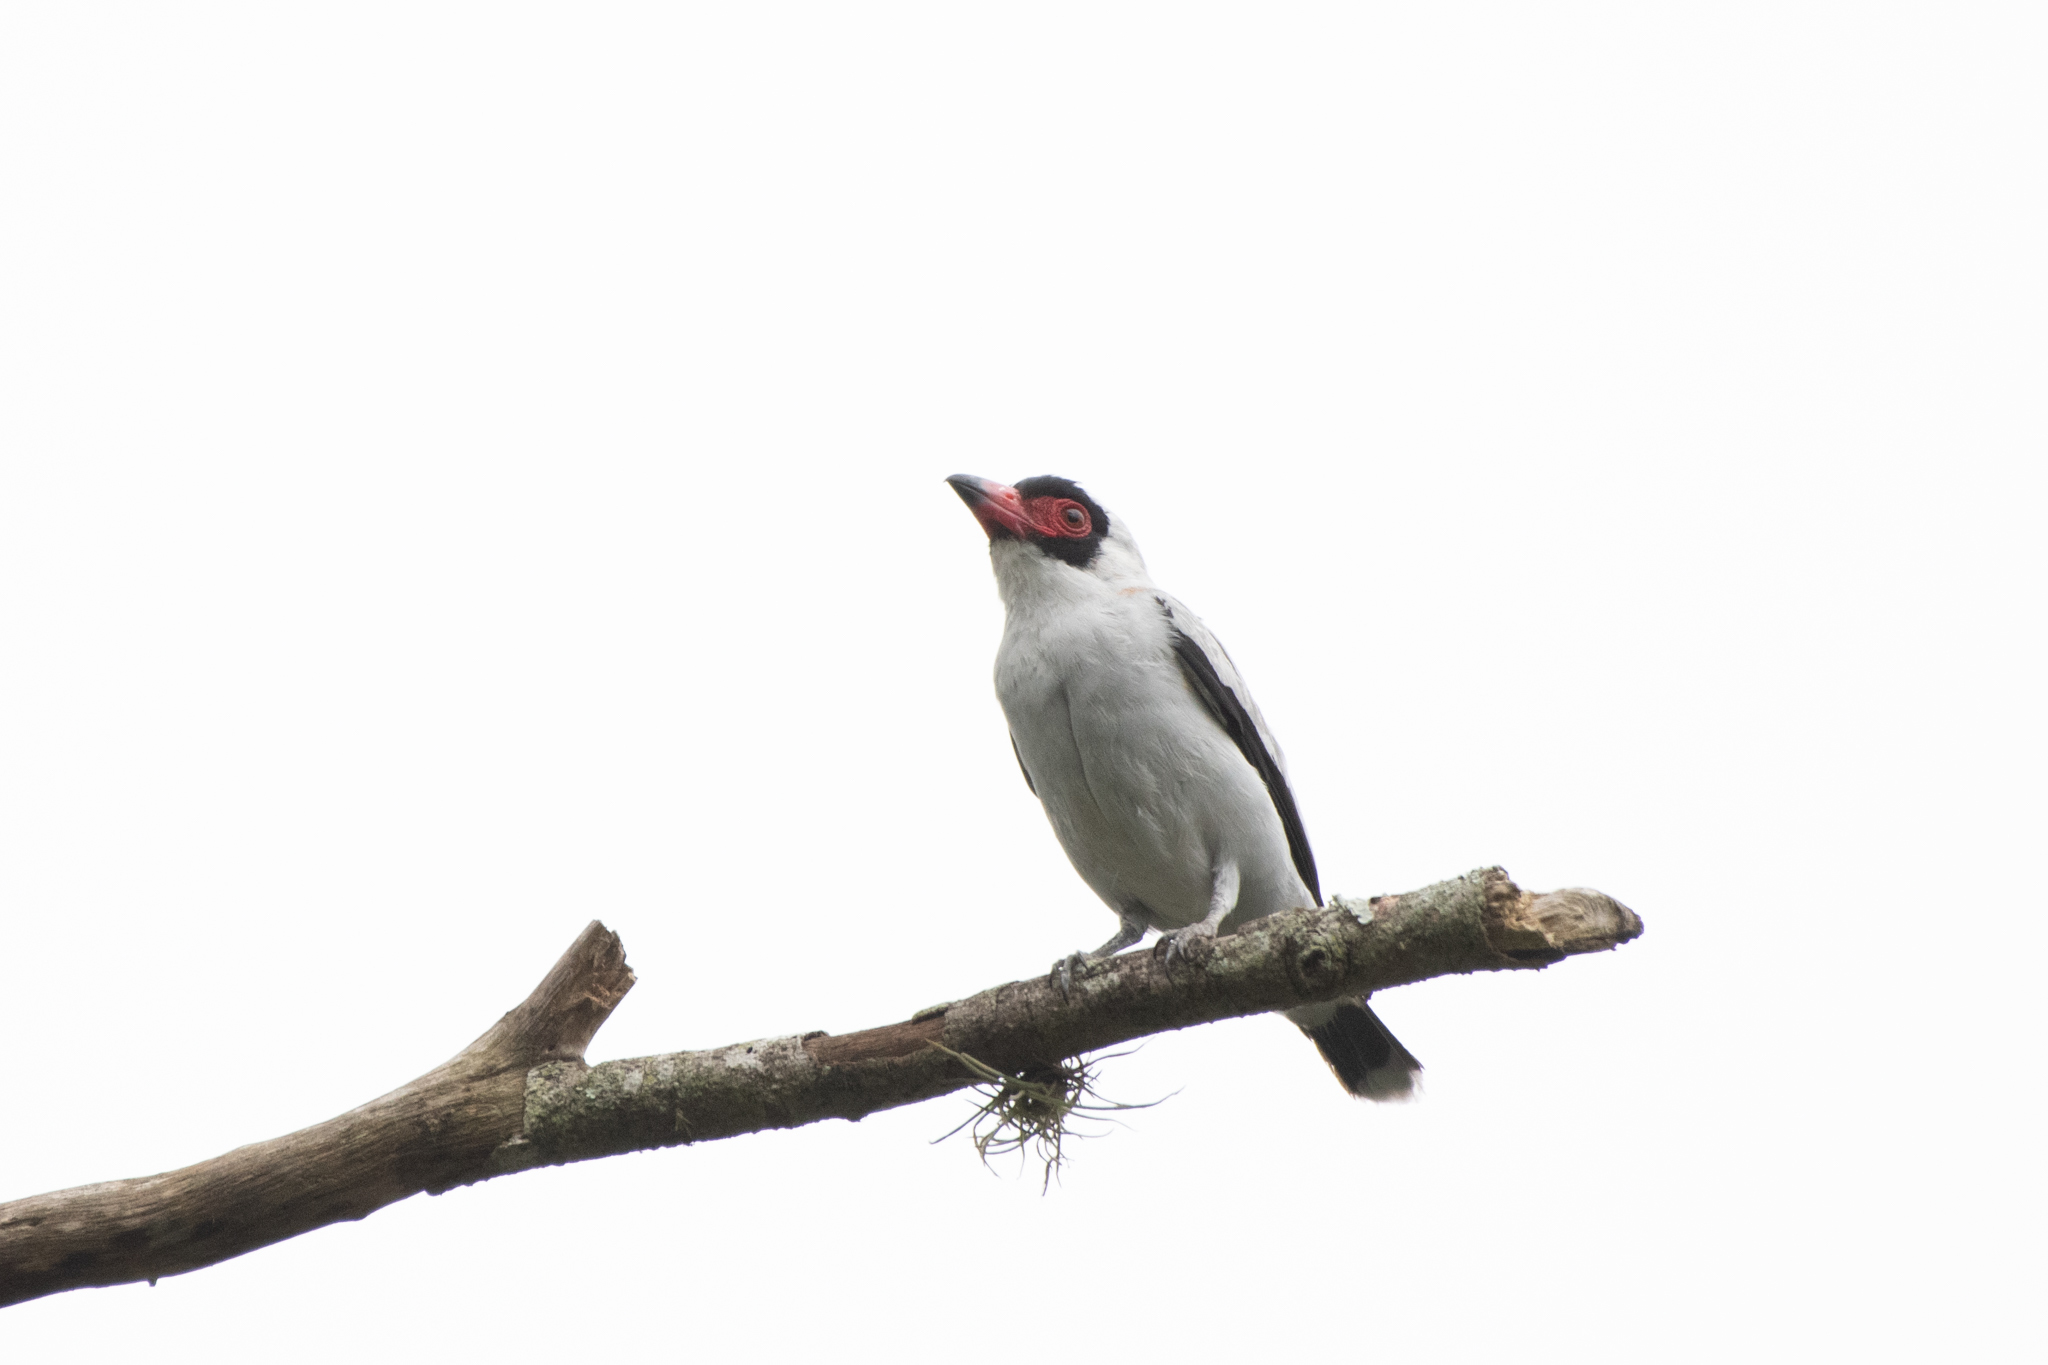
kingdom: Animalia
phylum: Chordata
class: Aves
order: Passeriformes
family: Cotingidae
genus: Tityra
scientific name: Tityra semifasciata
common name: Masked tityra
